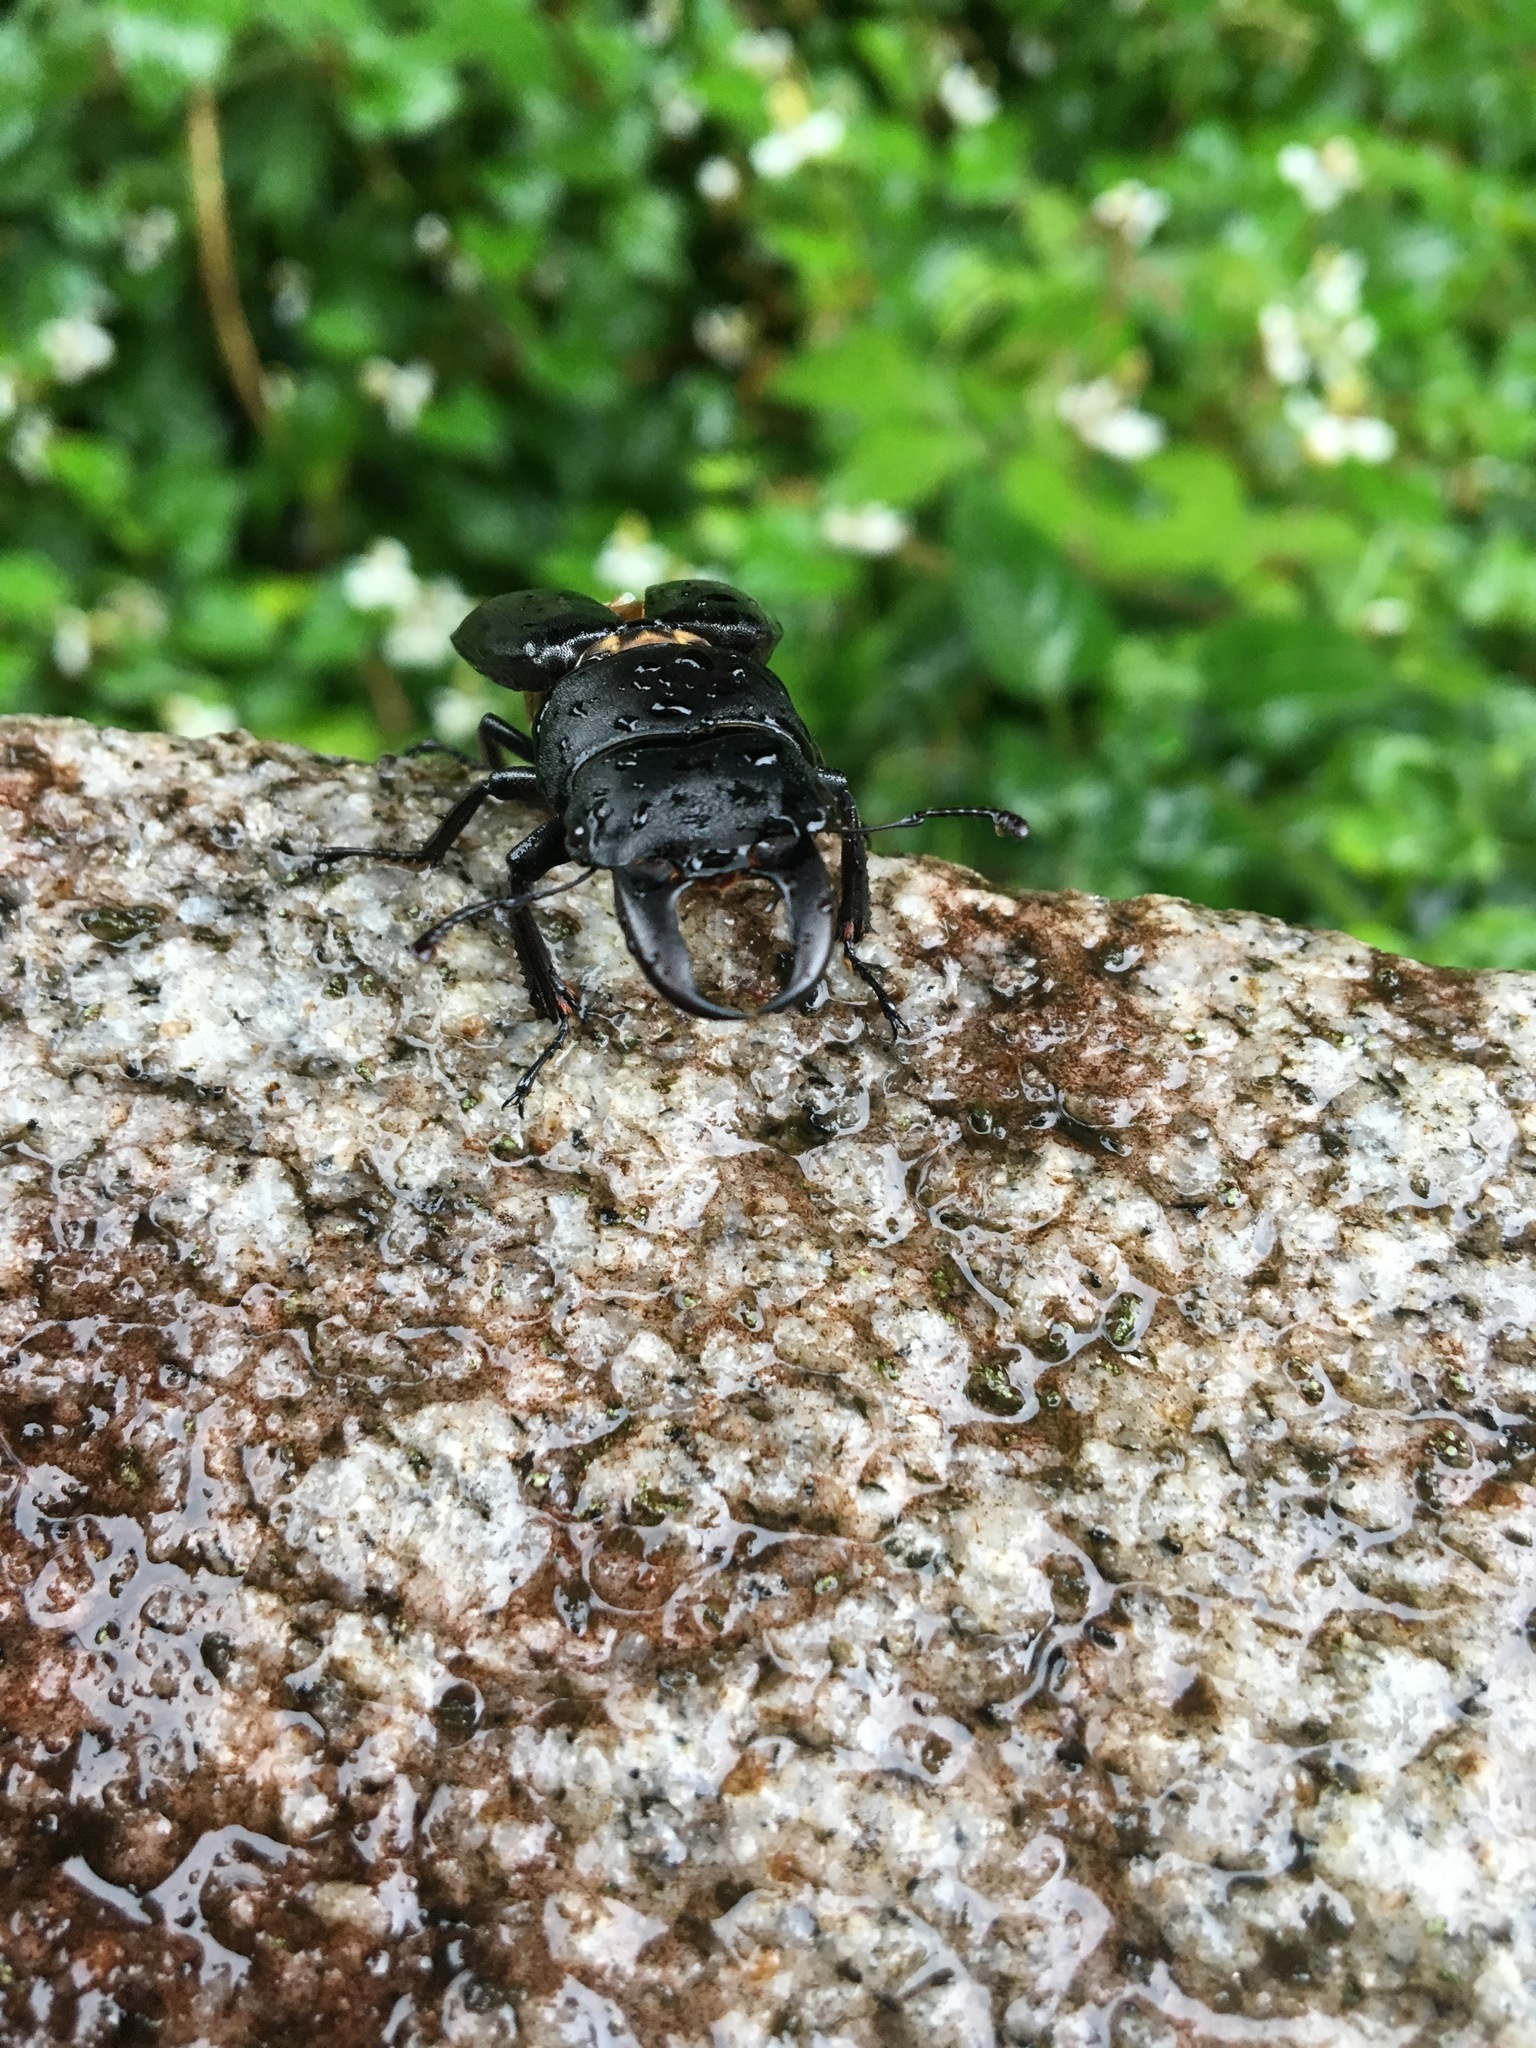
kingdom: Animalia
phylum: Arthropoda
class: Insecta
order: Coleoptera
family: Lucanidae
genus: Serrognathus
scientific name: Serrognathus titanus
